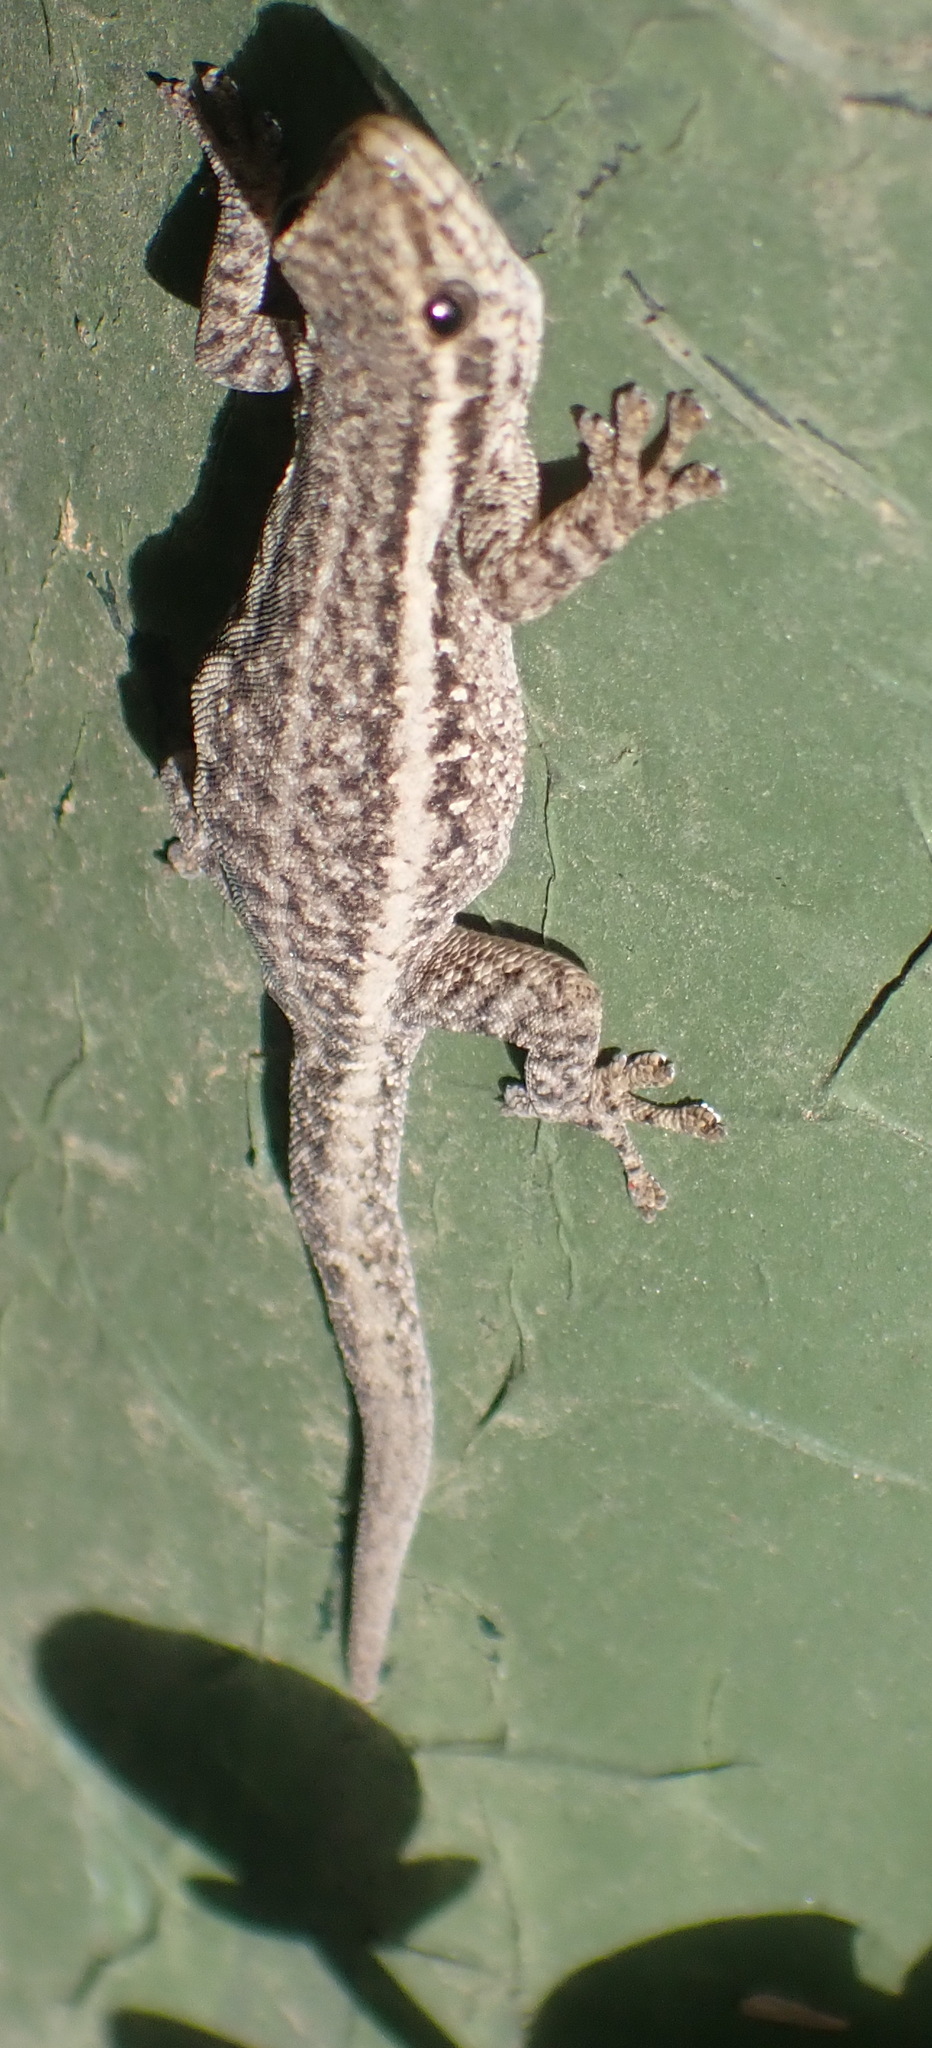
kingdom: Animalia
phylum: Chordata
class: Squamata
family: Gekkonidae
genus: Lygodactylus
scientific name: Lygodactylus capensis
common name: Cape dwarf gecko
